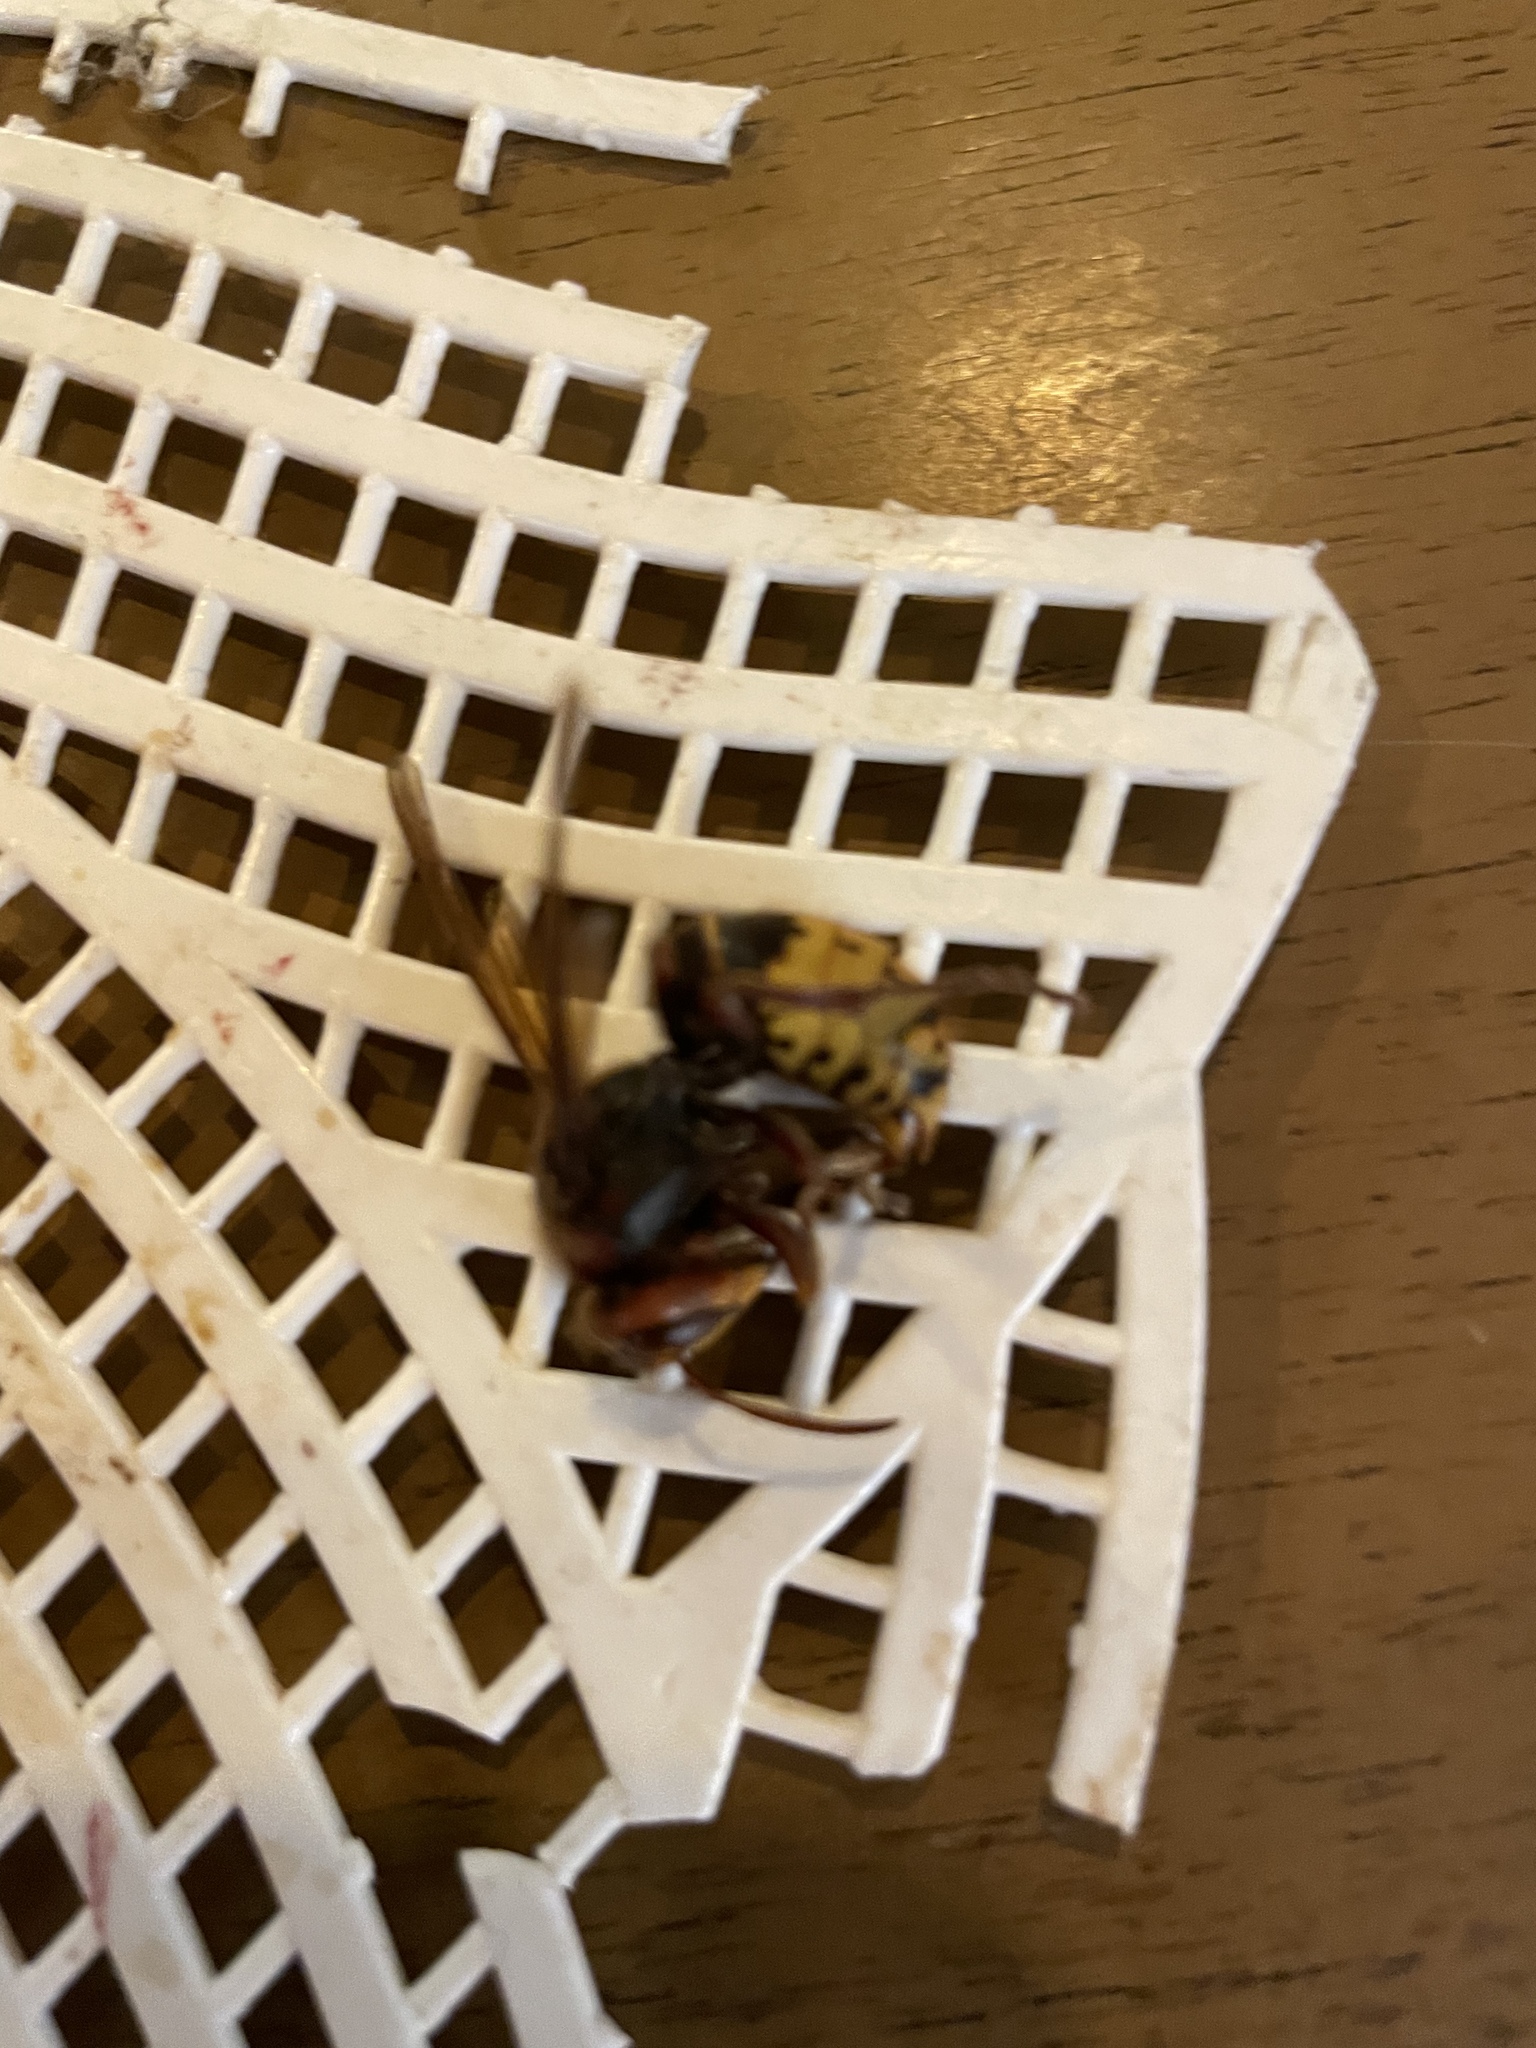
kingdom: Animalia
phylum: Arthropoda
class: Insecta
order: Hymenoptera
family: Vespidae
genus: Vespa
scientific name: Vespa crabro
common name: Hornet
